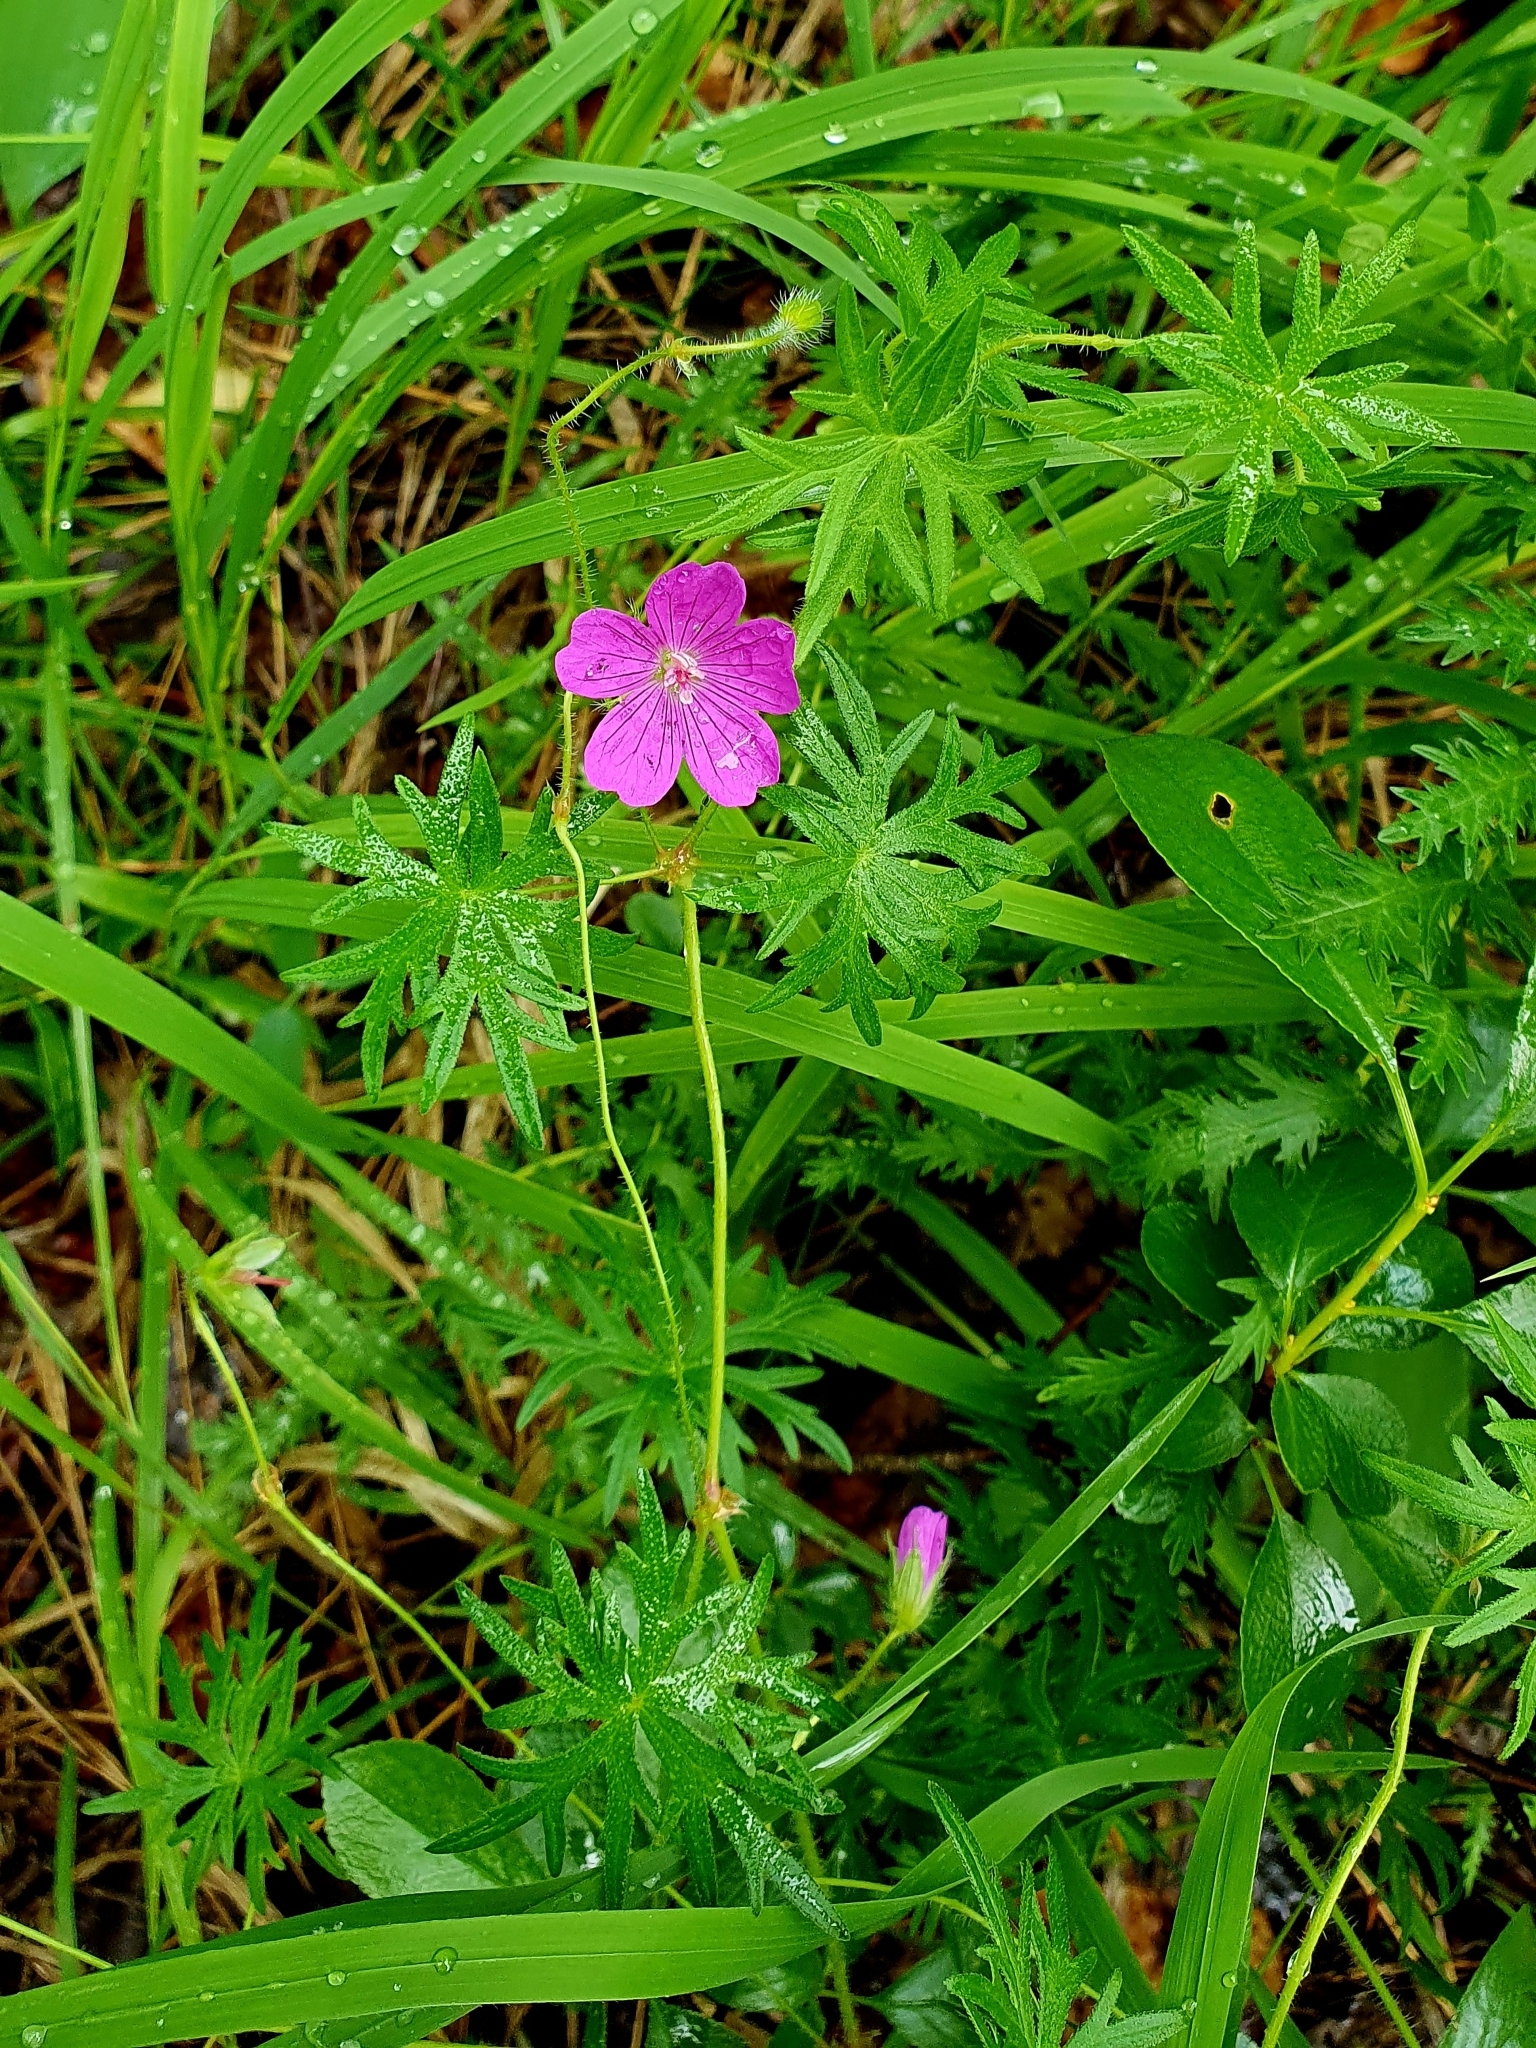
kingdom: Plantae
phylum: Tracheophyta
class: Magnoliopsida
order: Geraniales
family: Geraniaceae
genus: Geranium
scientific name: Geranium sanguineum
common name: Bloody crane's-bill
